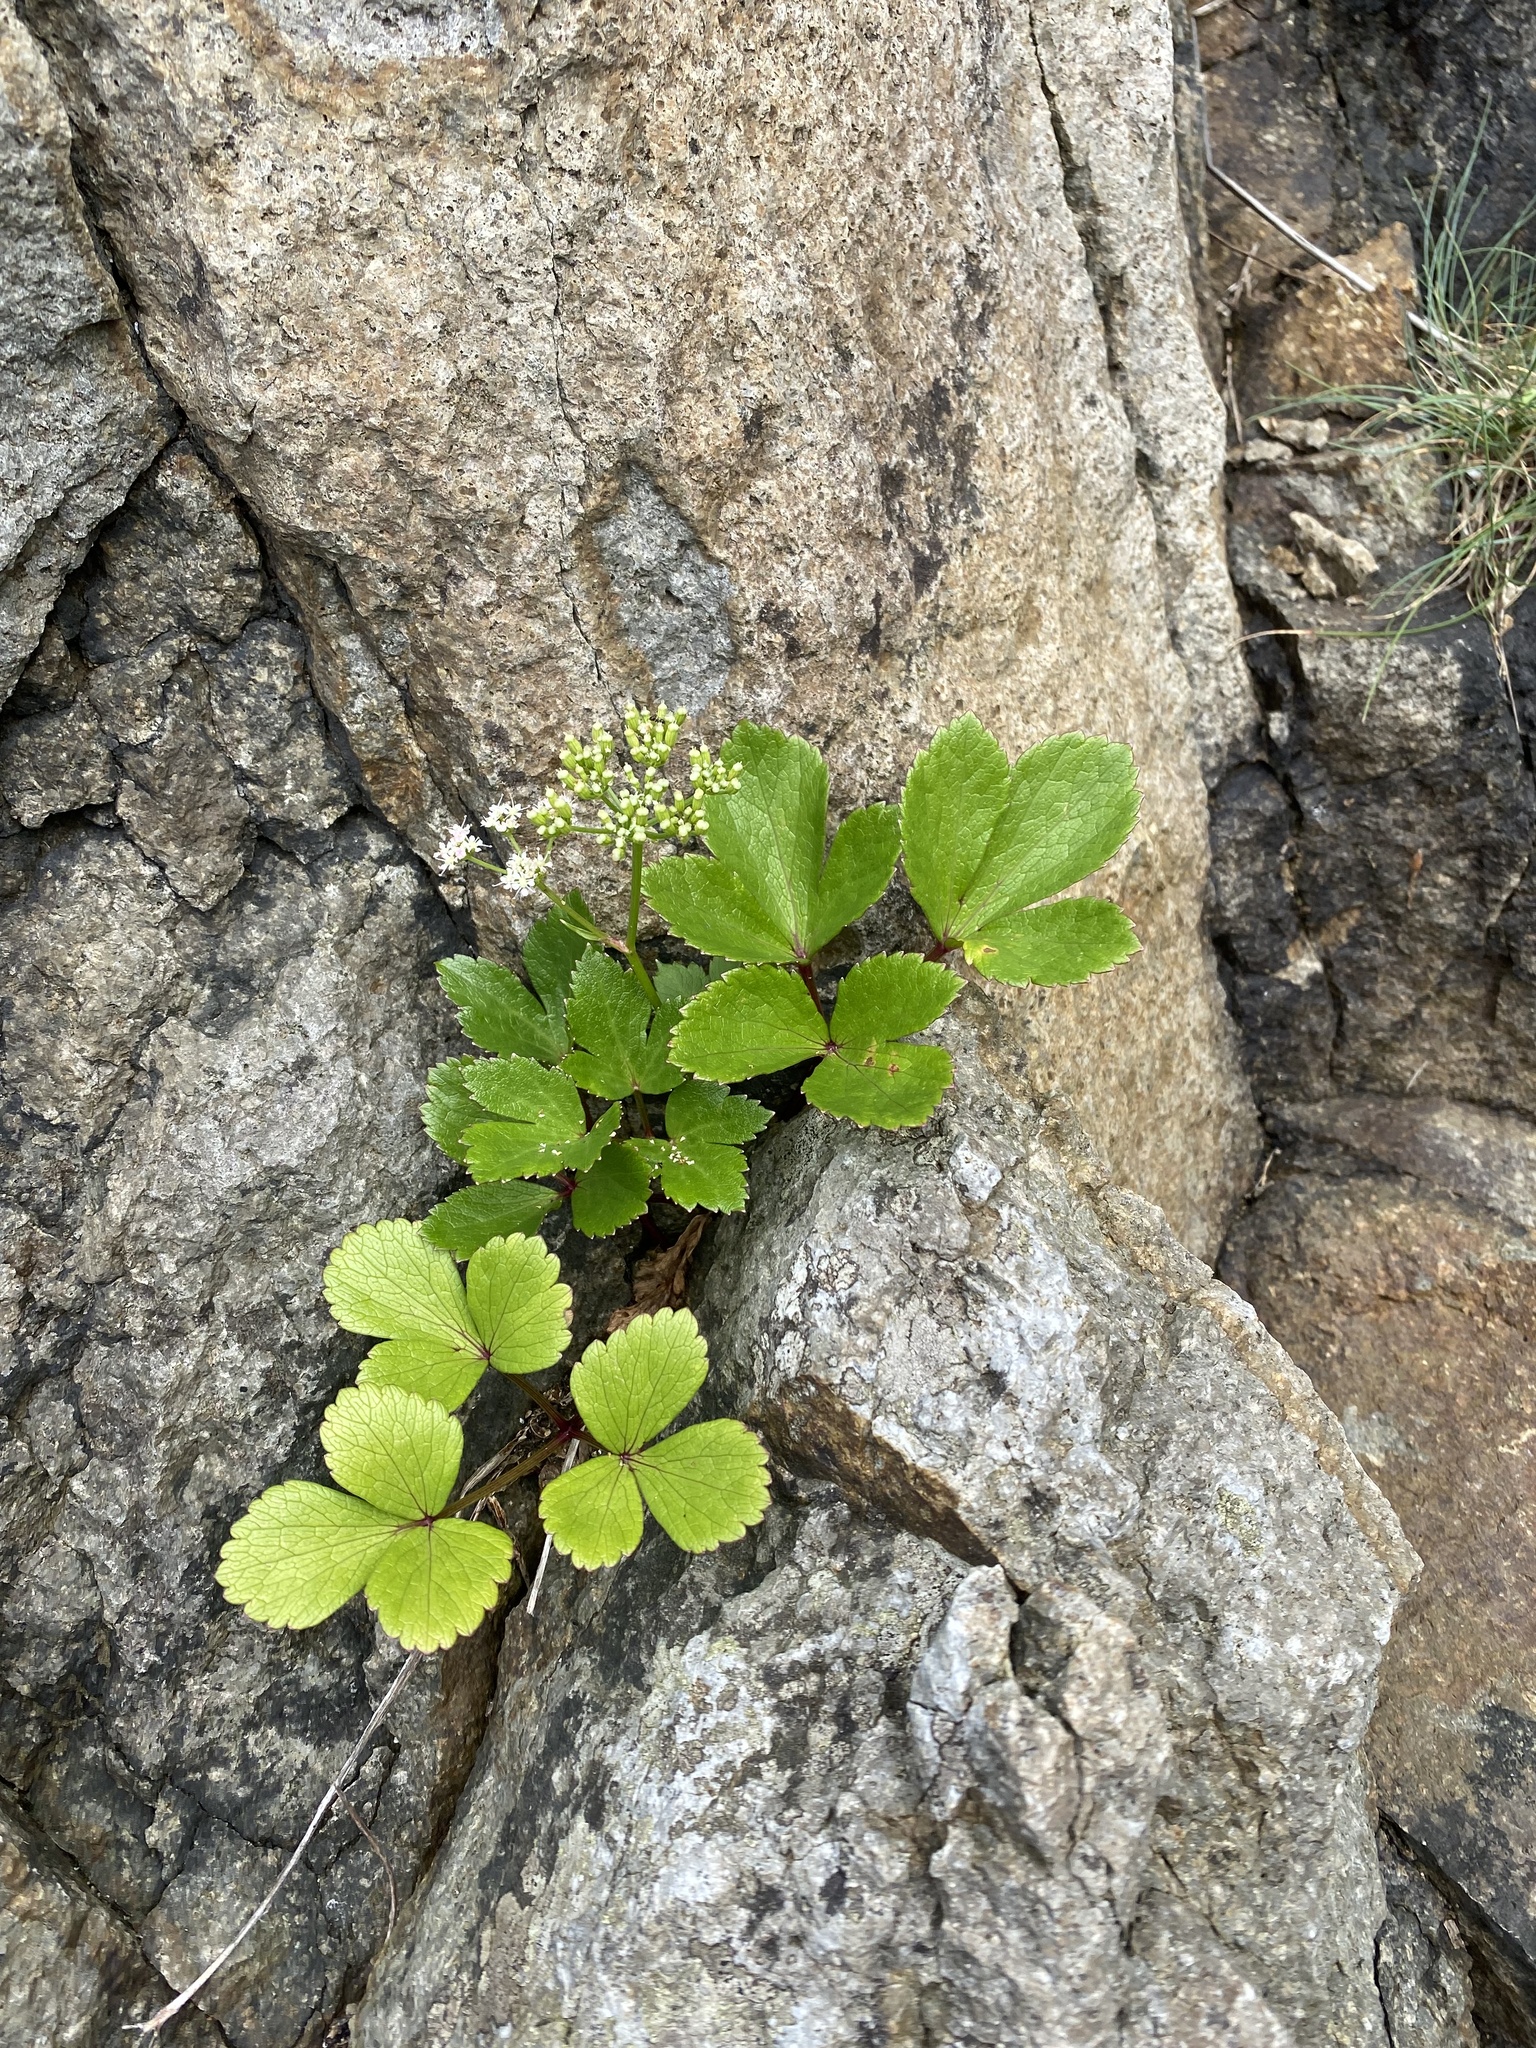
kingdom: Plantae
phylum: Tracheophyta
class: Magnoliopsida
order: Apiales
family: Apiaceae
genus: Ligusticum
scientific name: Ligusticum scothicum
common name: Beach lovage
